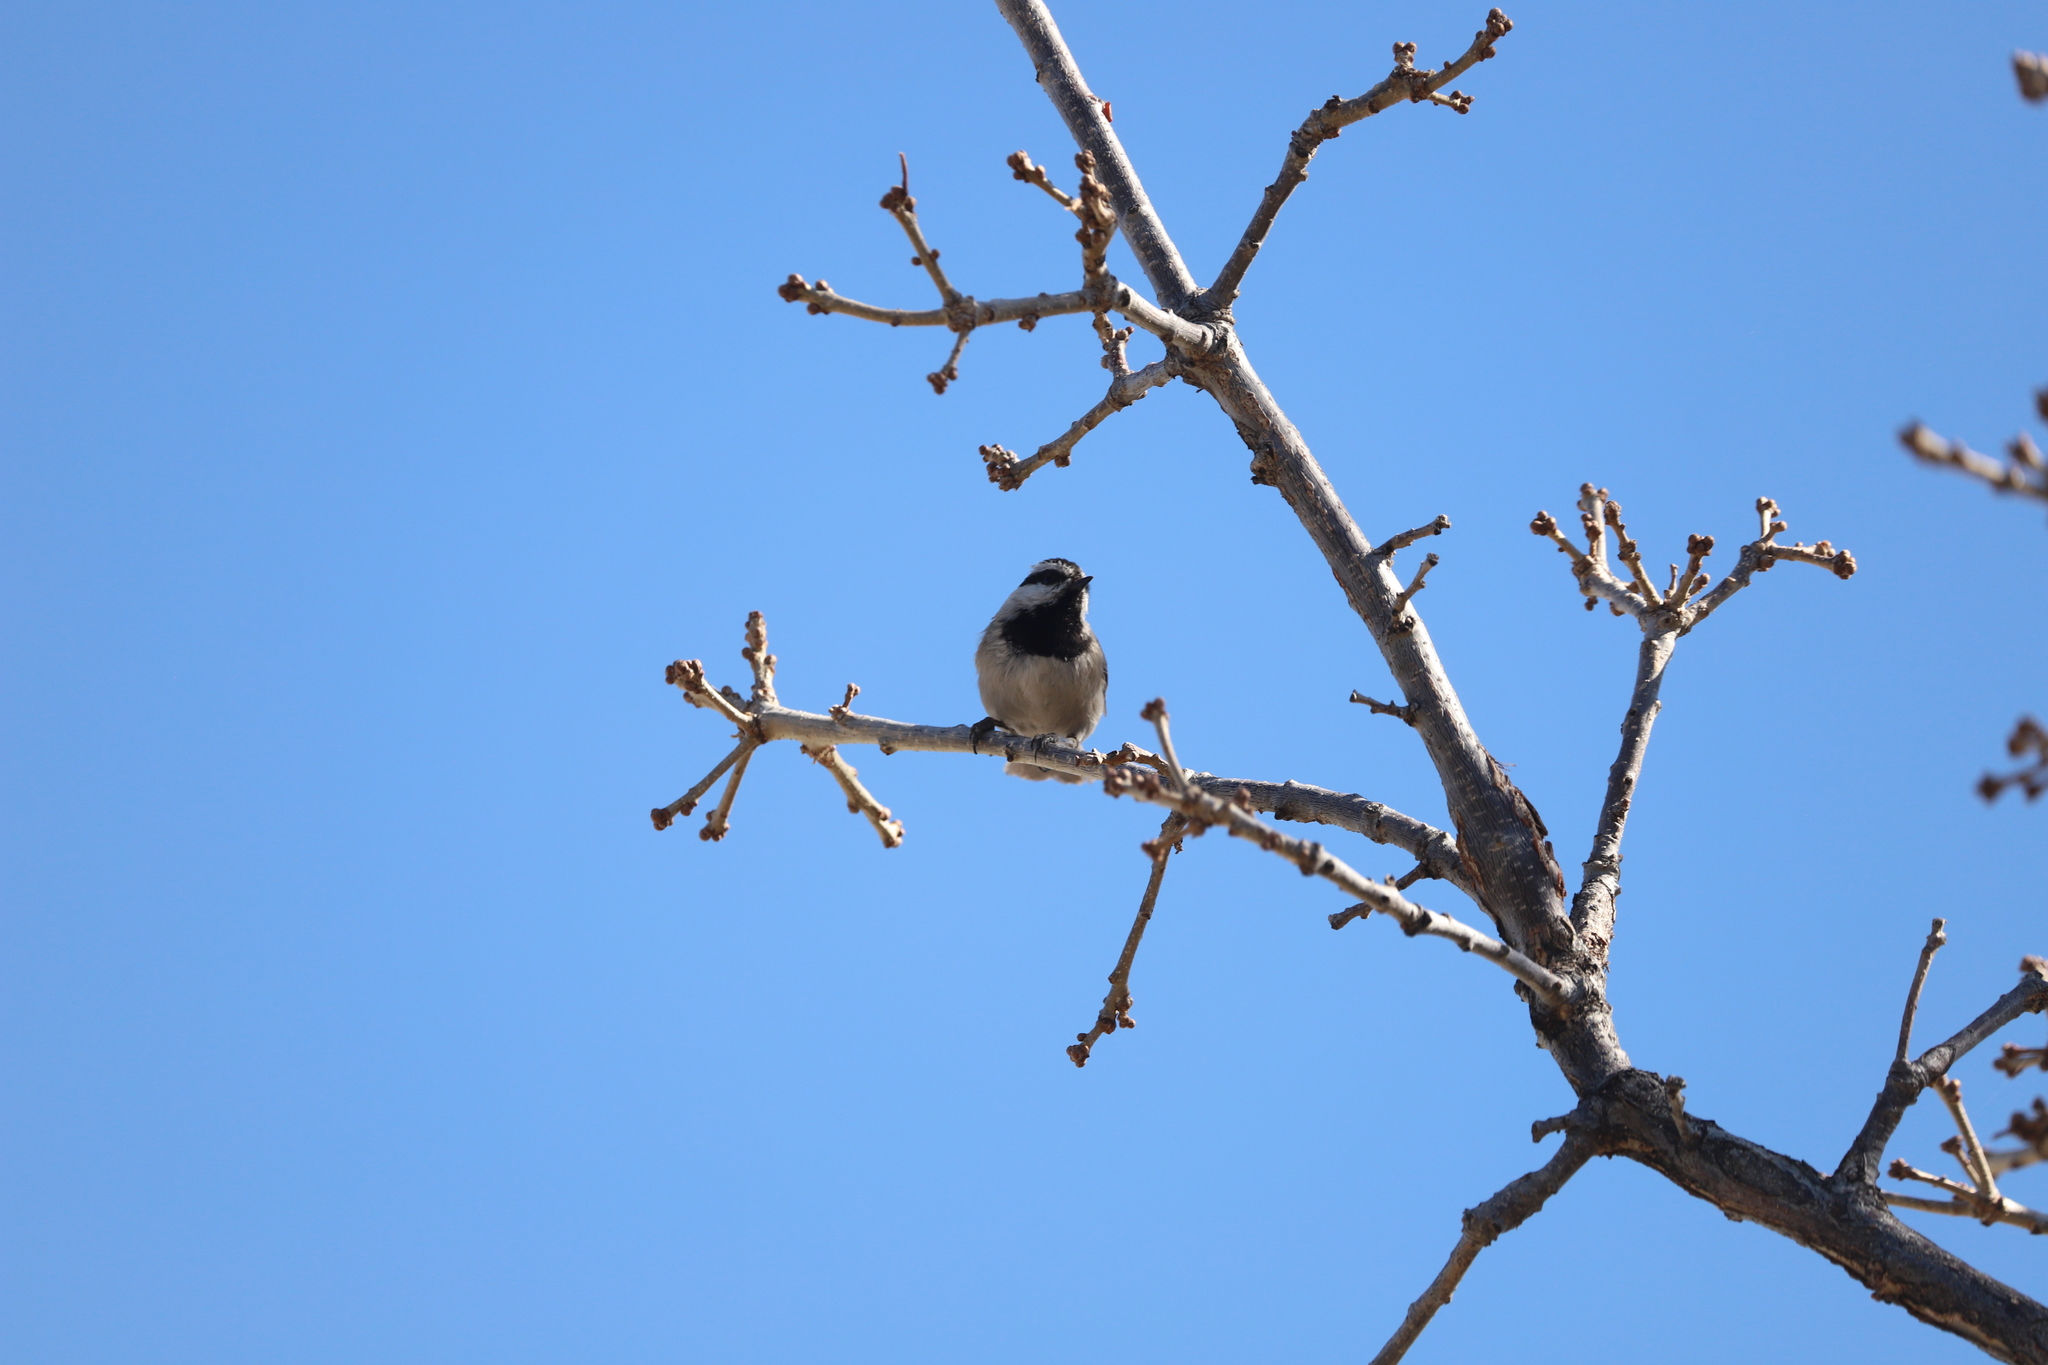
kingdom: Animalia
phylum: Chordata
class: Aves
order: Passeriformes
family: Paridae
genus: Poecile
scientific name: Poecile gambeli
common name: Mountain chickadee
